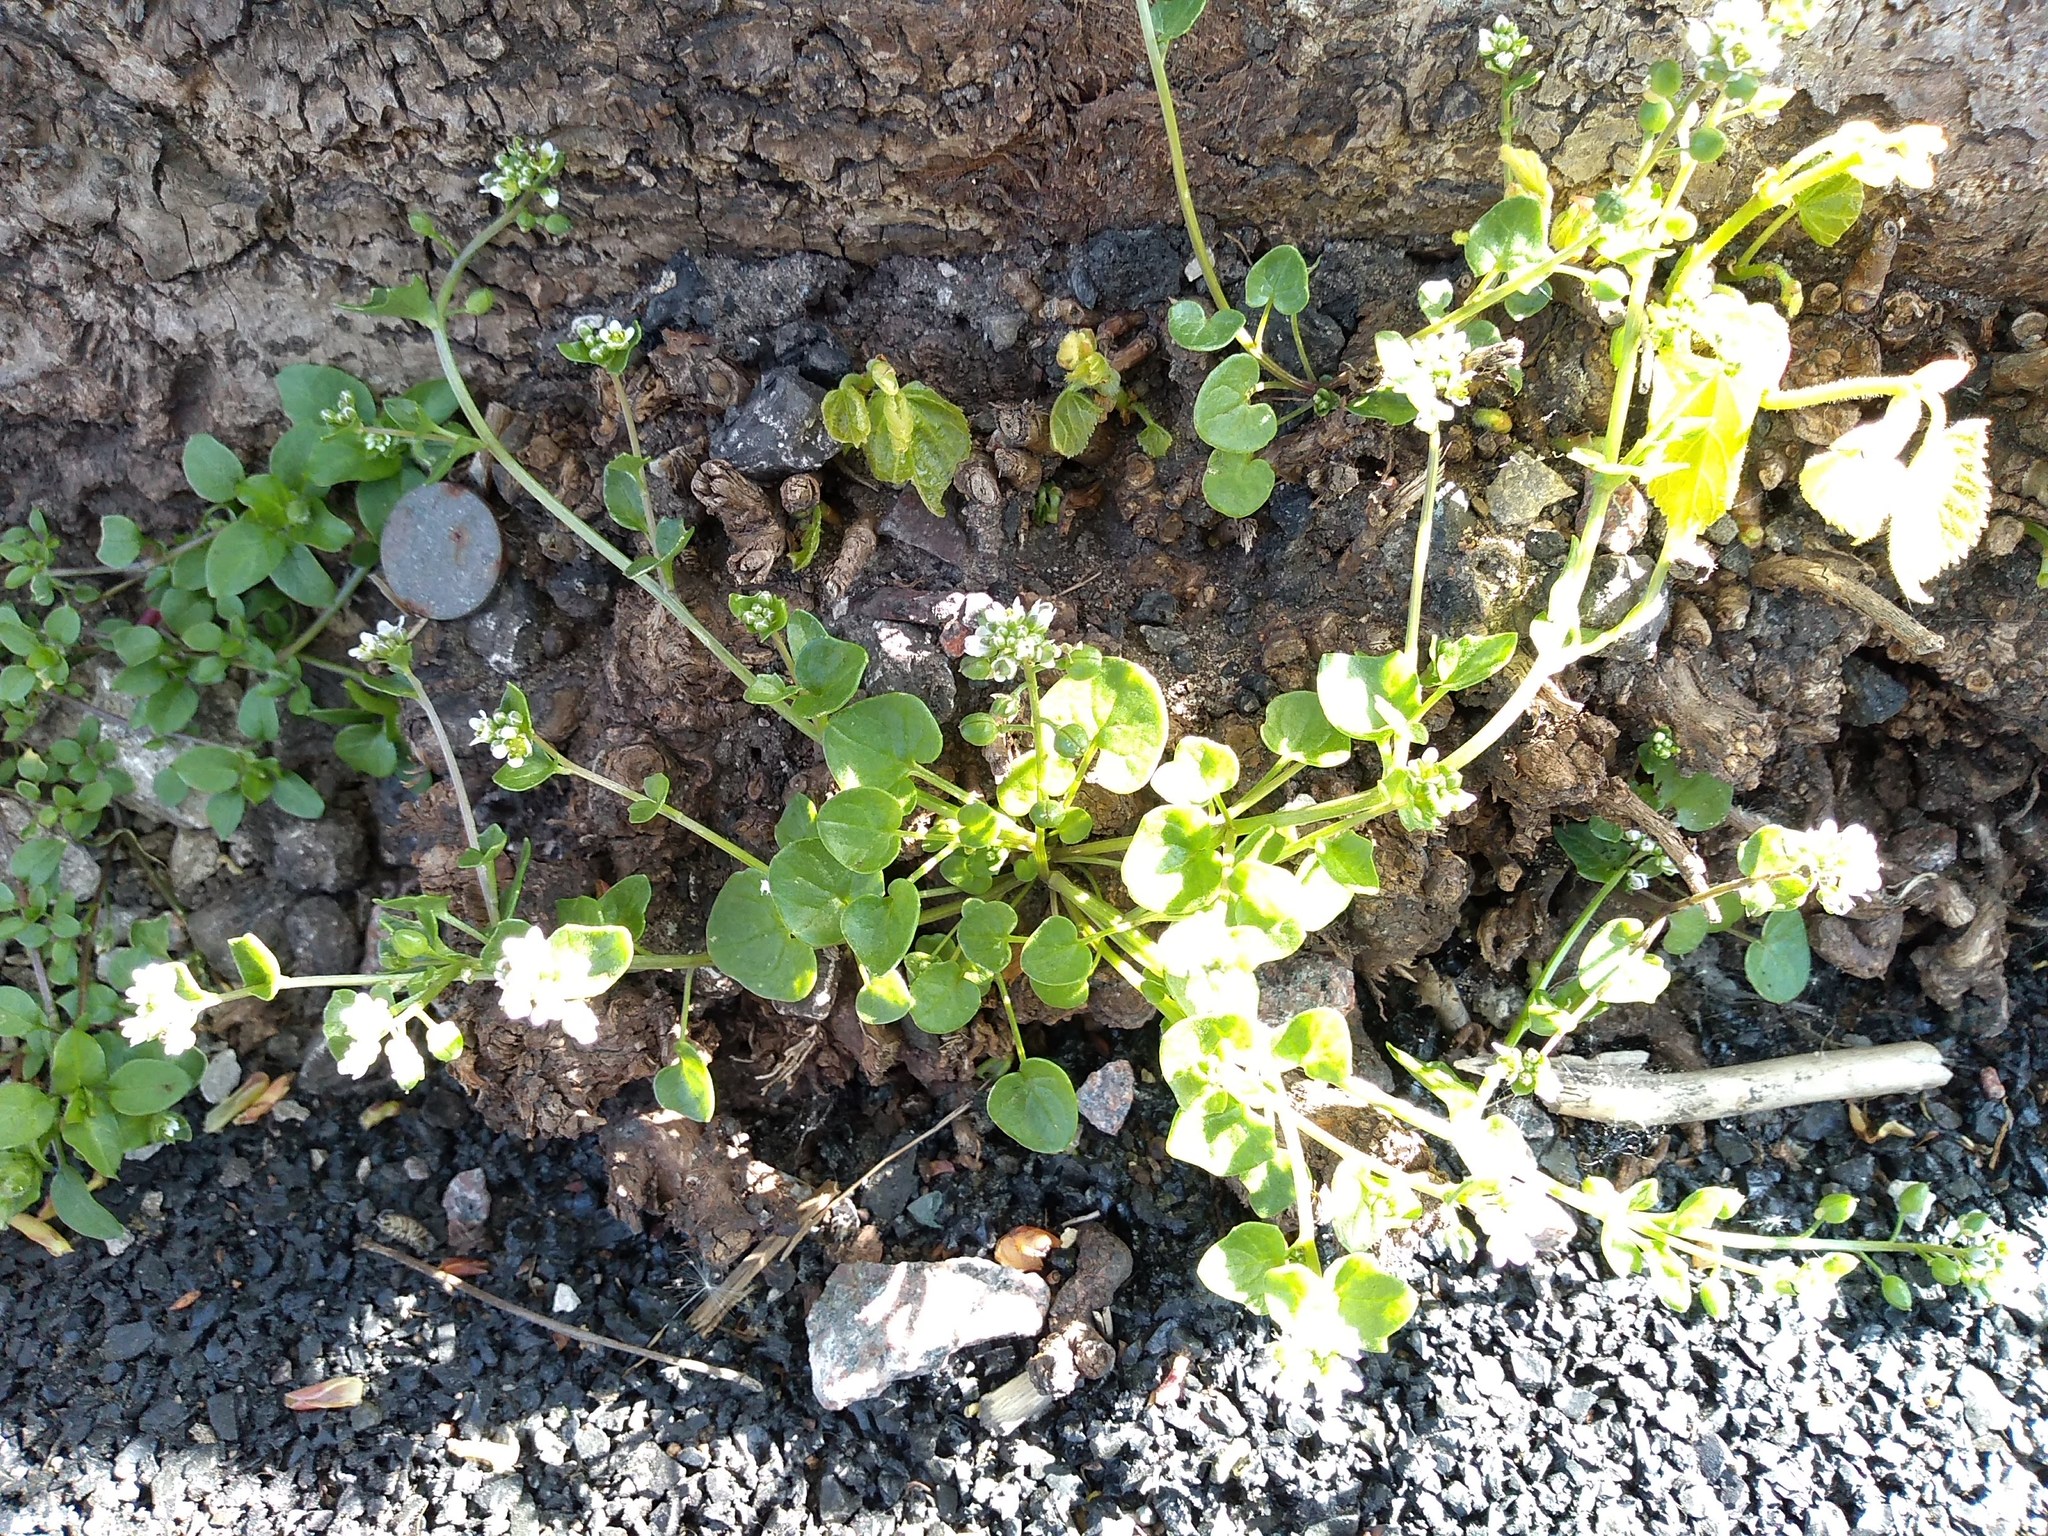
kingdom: Plantae
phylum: Tracheophyta
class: Magnoliopsida
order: Brassicales
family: Brassicaceae
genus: Cochlearia
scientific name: Cochlearia danica
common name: Early scurvygrass
